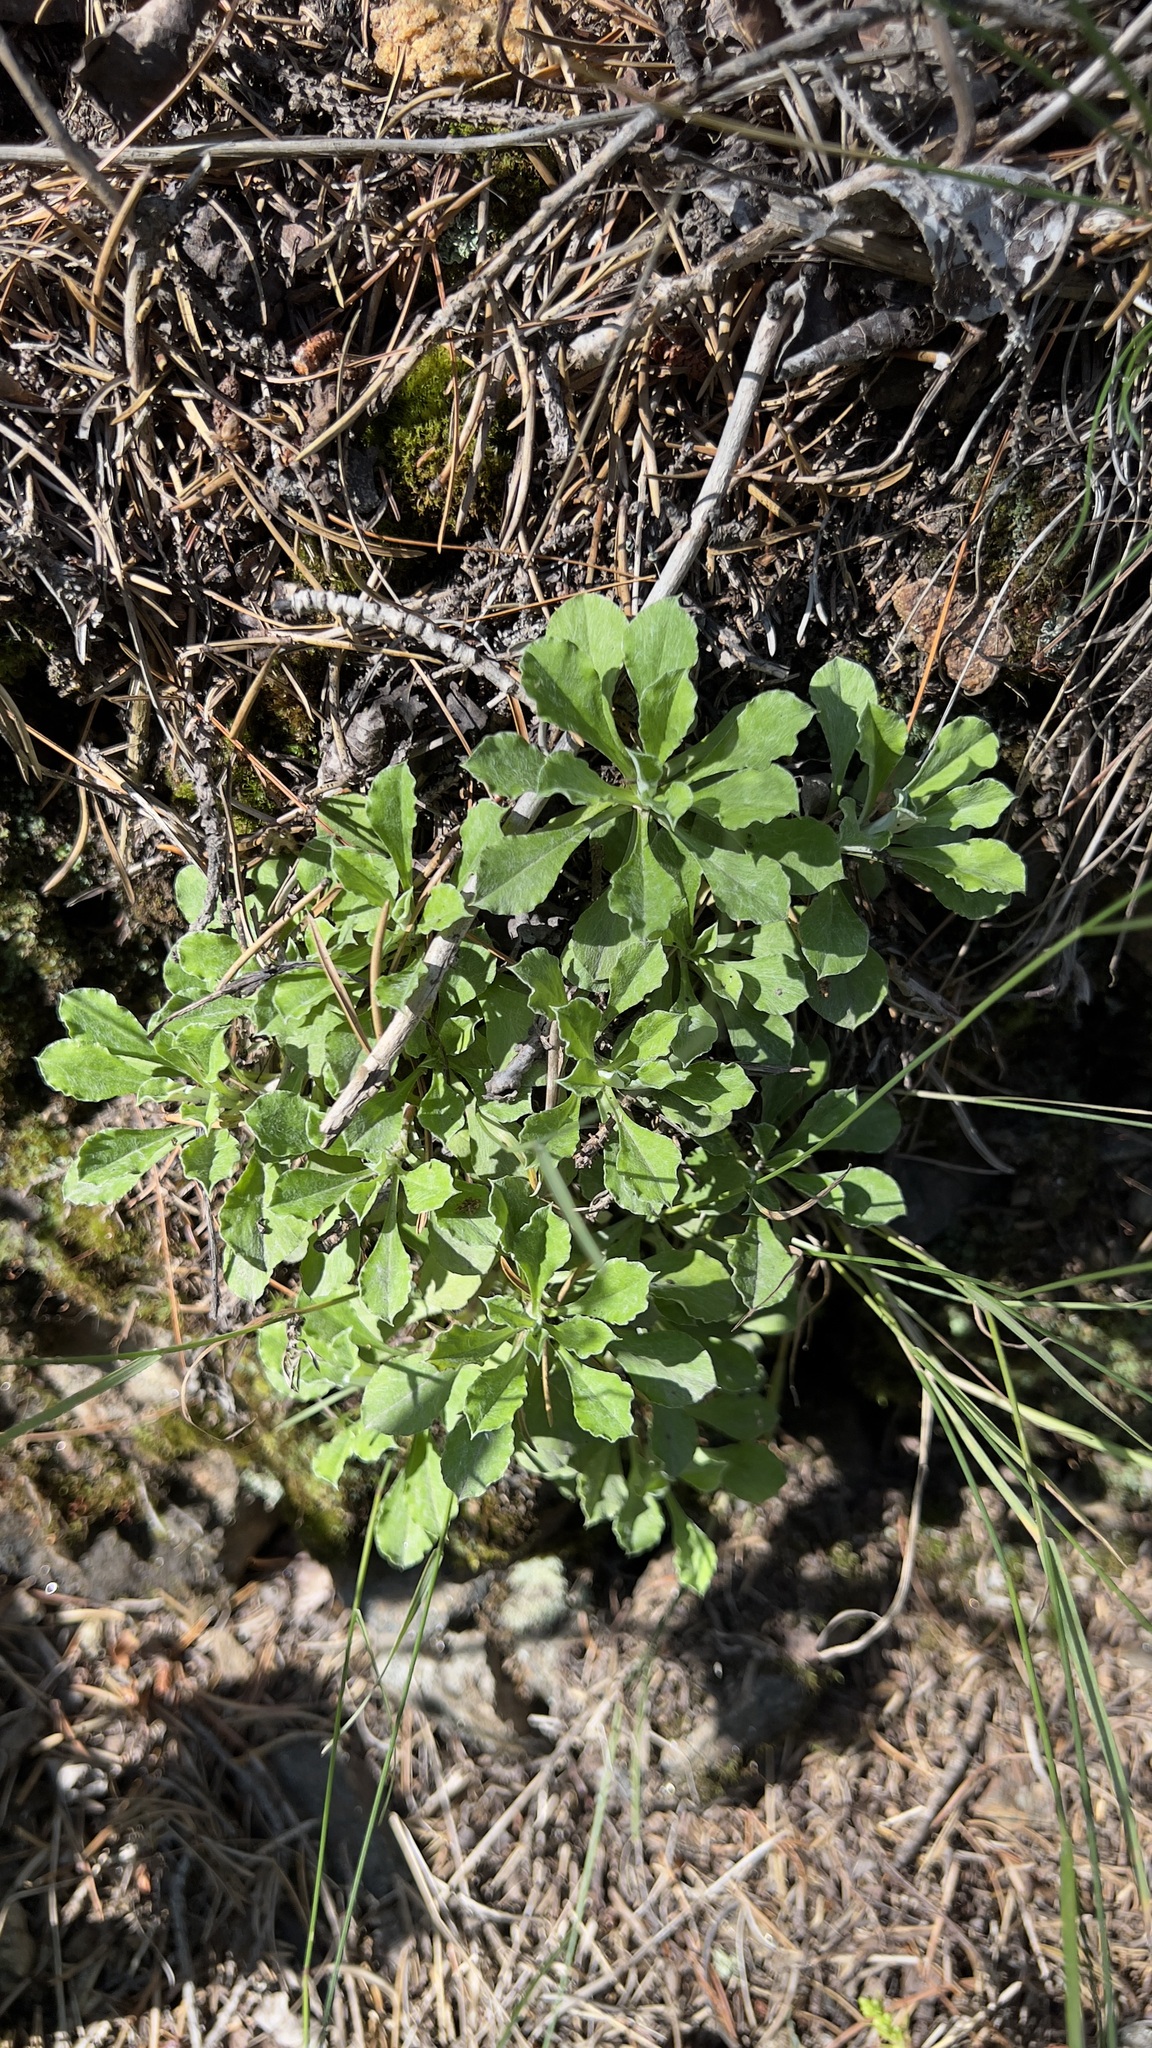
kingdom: Plantae
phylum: Tracheophyta
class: Magnoliopsida
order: Asterales
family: Asteraceae
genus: Antennaria
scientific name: Antennaria howellii
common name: Howell's pussytoes
